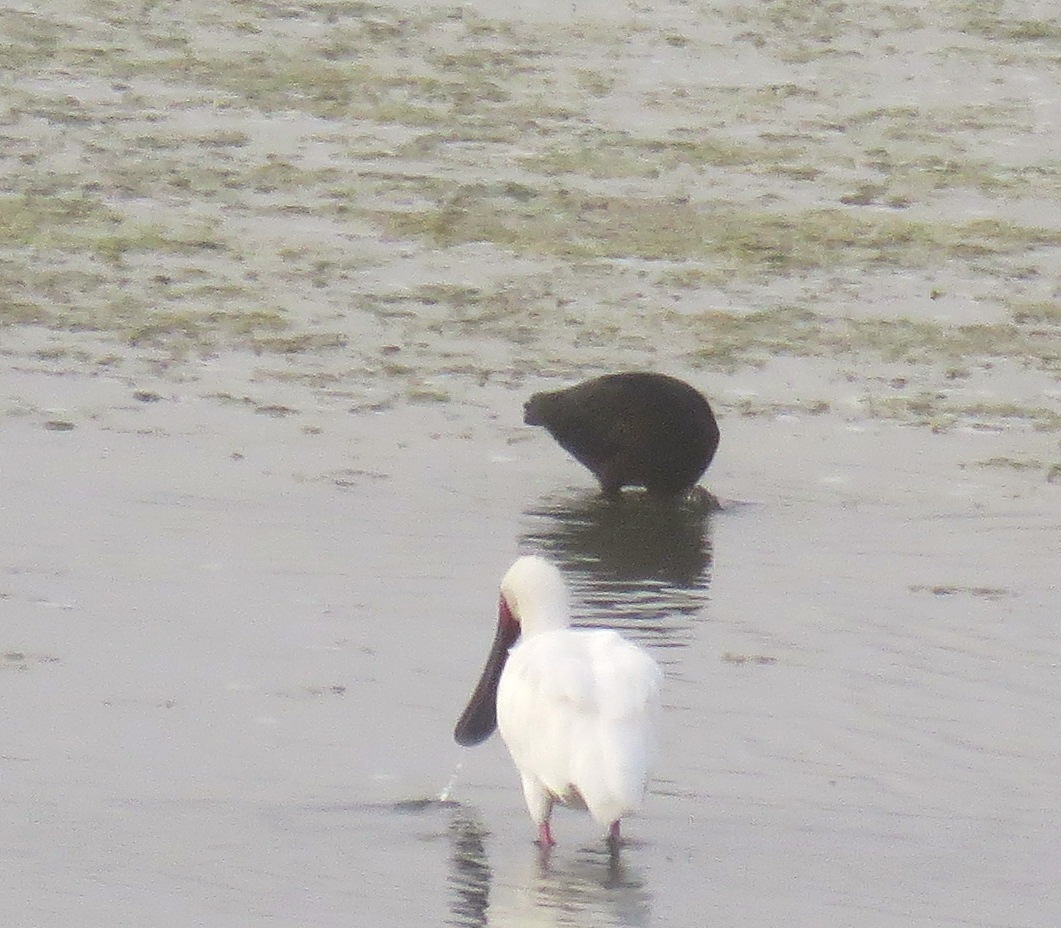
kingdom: Animalia
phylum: Chordata
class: Aves
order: Pelecaniformes
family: Threskiornithidae
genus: Platalea
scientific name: Platalea alba
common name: African spoonbill
